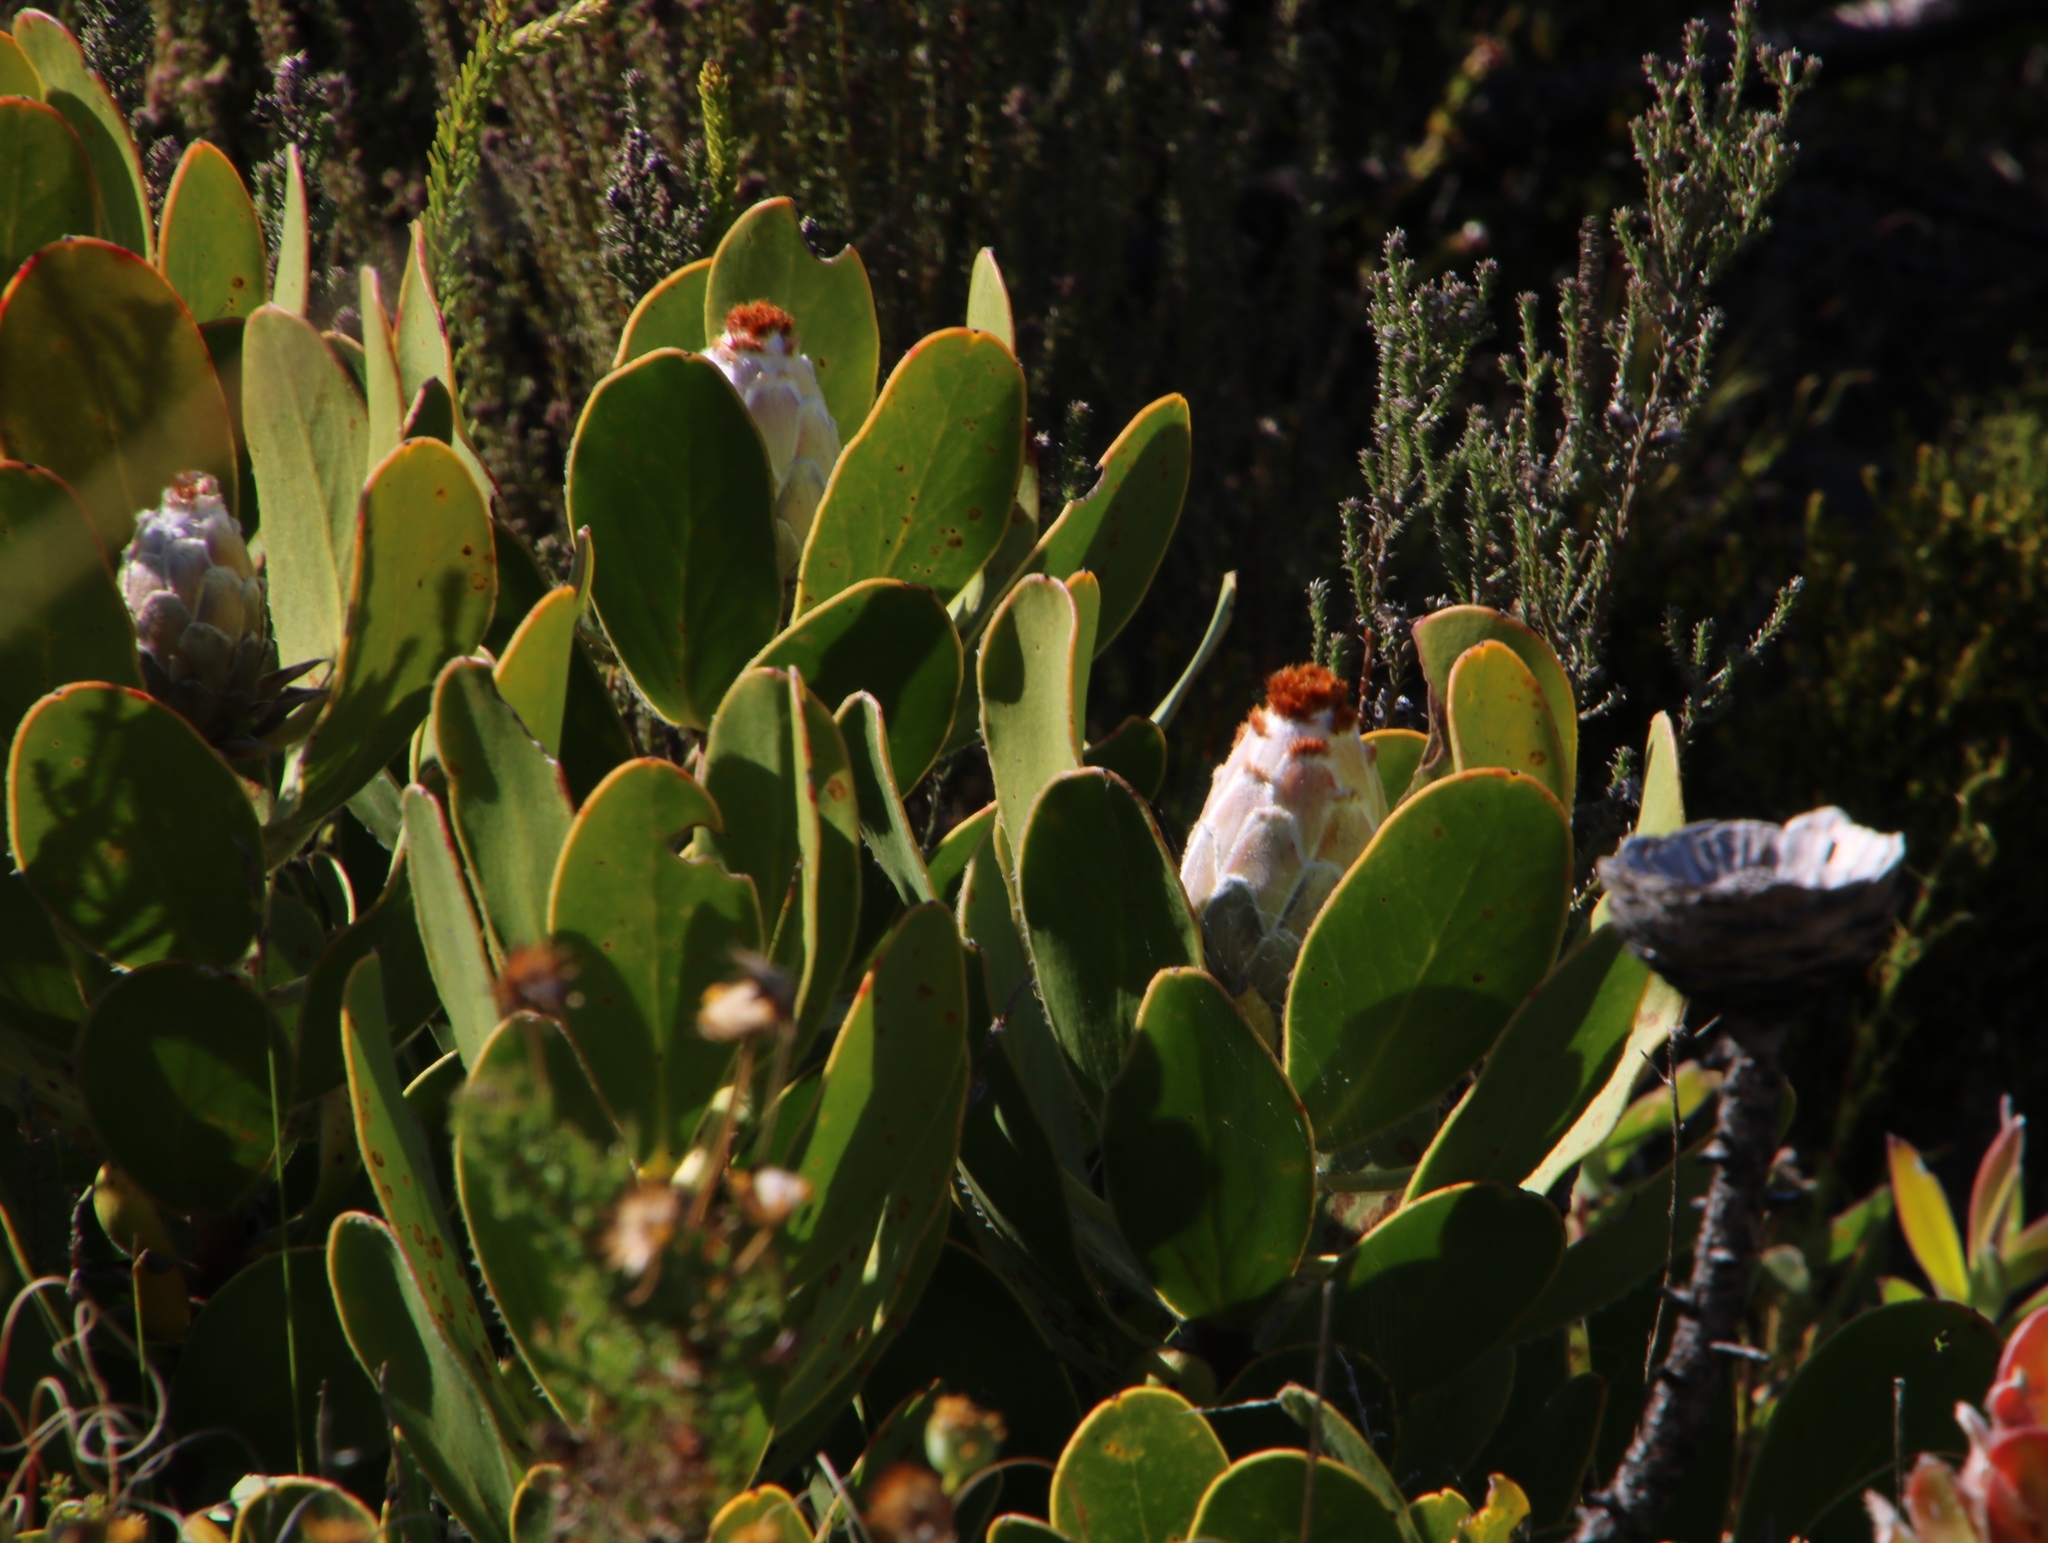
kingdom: Plantae
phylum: Tracheophyta
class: Magnoliopsida
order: Proteales
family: Proteaceae
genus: Protea
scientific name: Protea speciosa
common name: Brown-beard sugarbush
